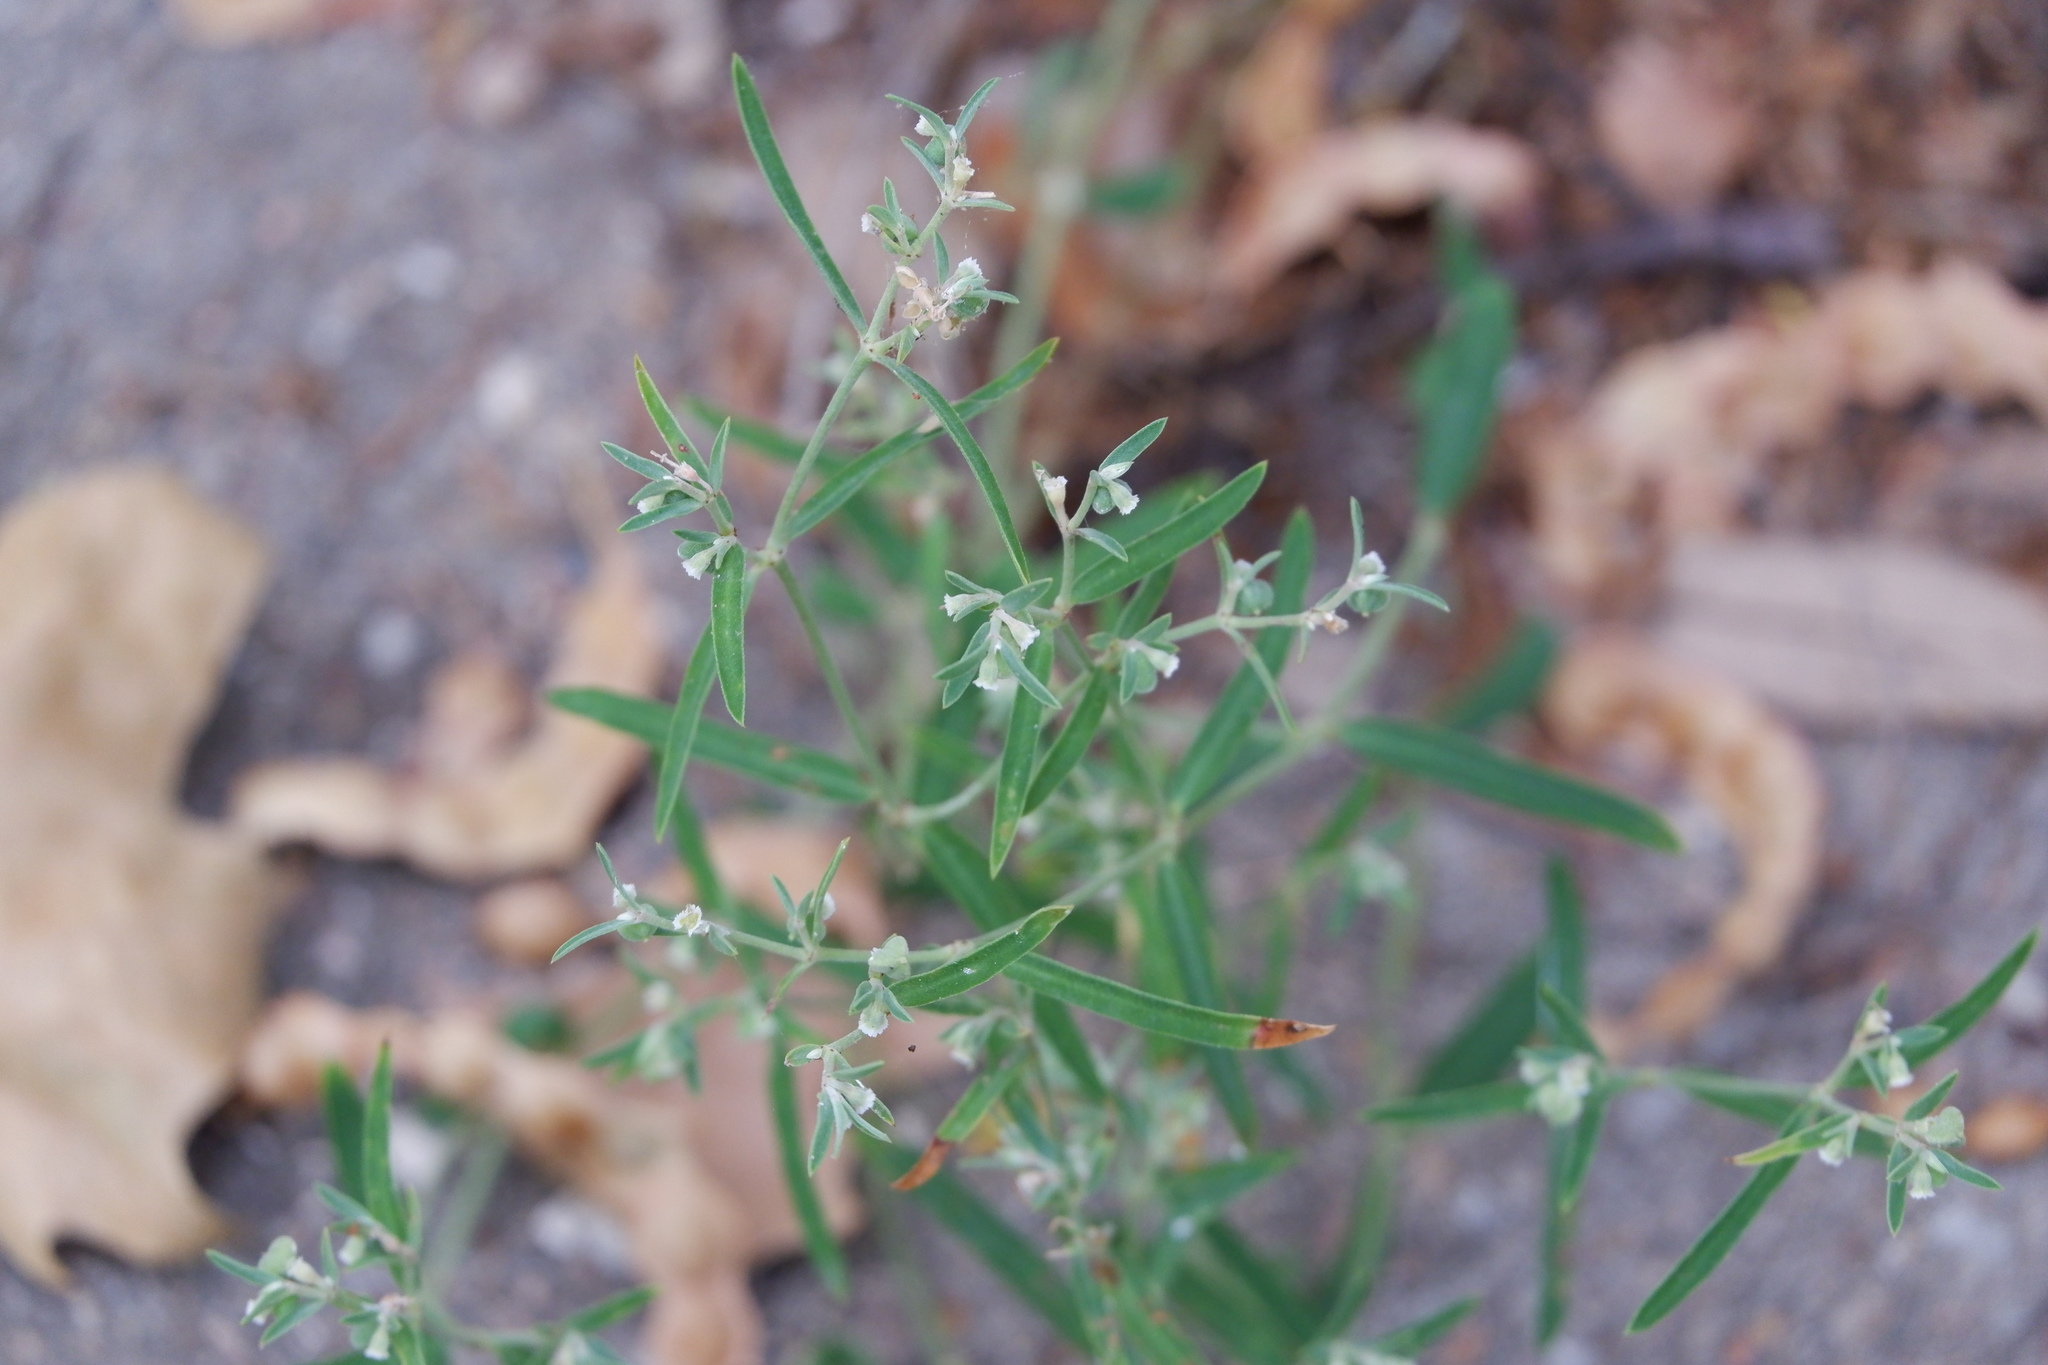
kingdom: Plantae
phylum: Tracheophyta
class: Magnoliopsida
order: Malpighiales
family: Euphorbiaceae
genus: Euphorbia
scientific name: Euphorbia angusta
